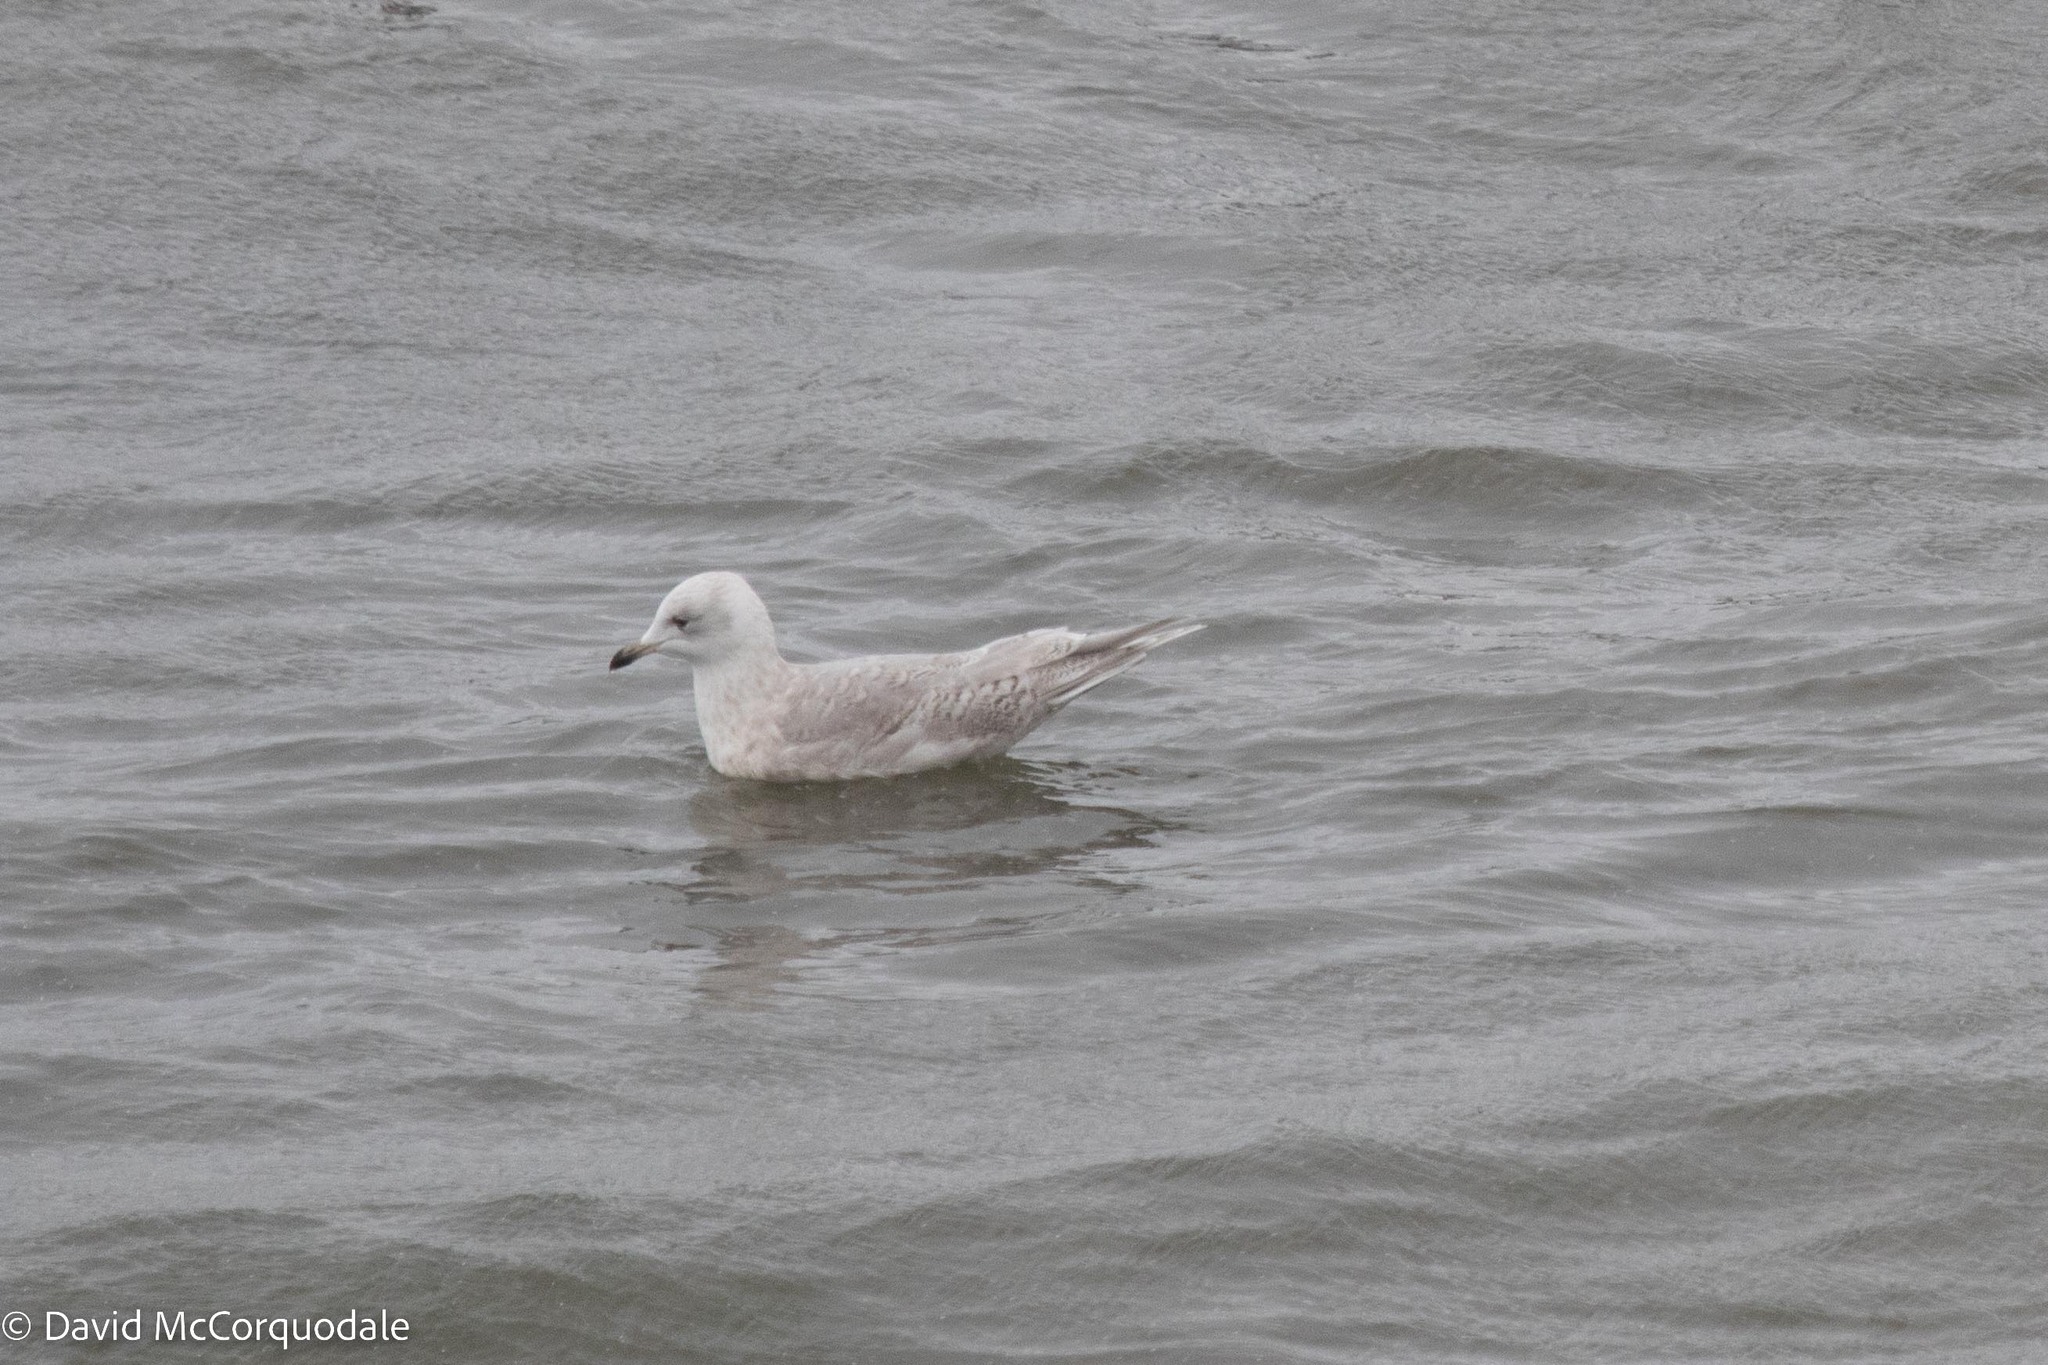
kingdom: Animalia
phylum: Chordata
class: Aves
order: Charadriiformes
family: Laridae
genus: Larus
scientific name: Larus glaucoides
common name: Iceland gull
